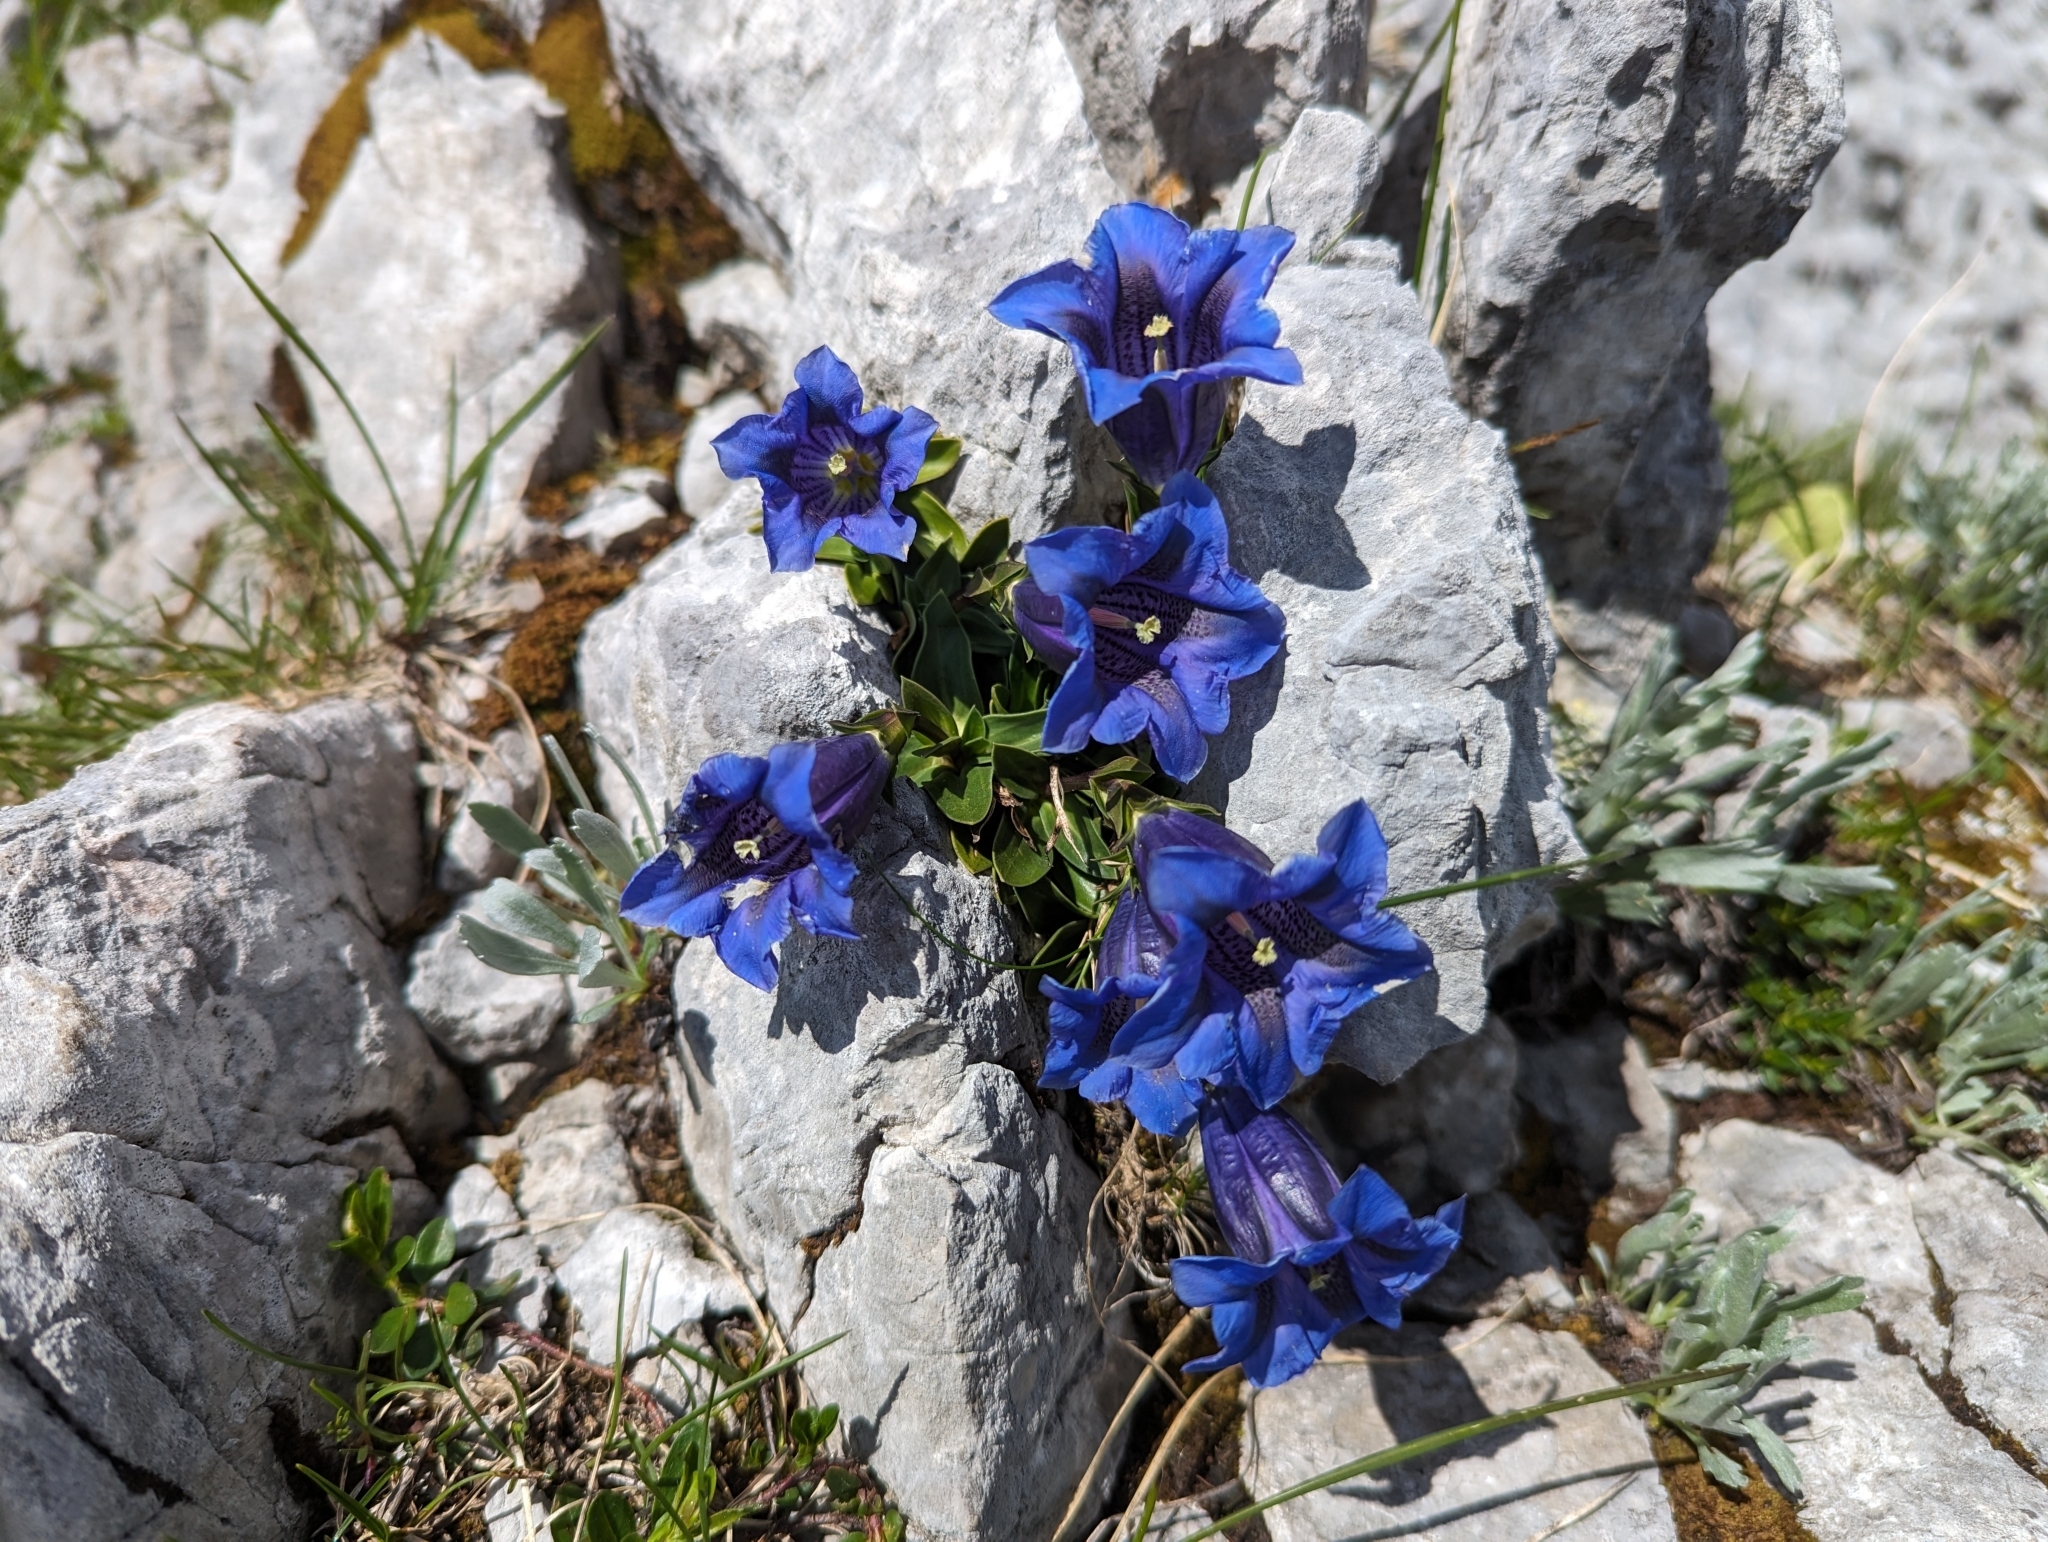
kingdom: Plantae
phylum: Tracheophyta
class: Magnoliopsida
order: Gentianales
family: Gentianaceae
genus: Gentiana
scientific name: Gentiana clusii
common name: Trumpet gentian
